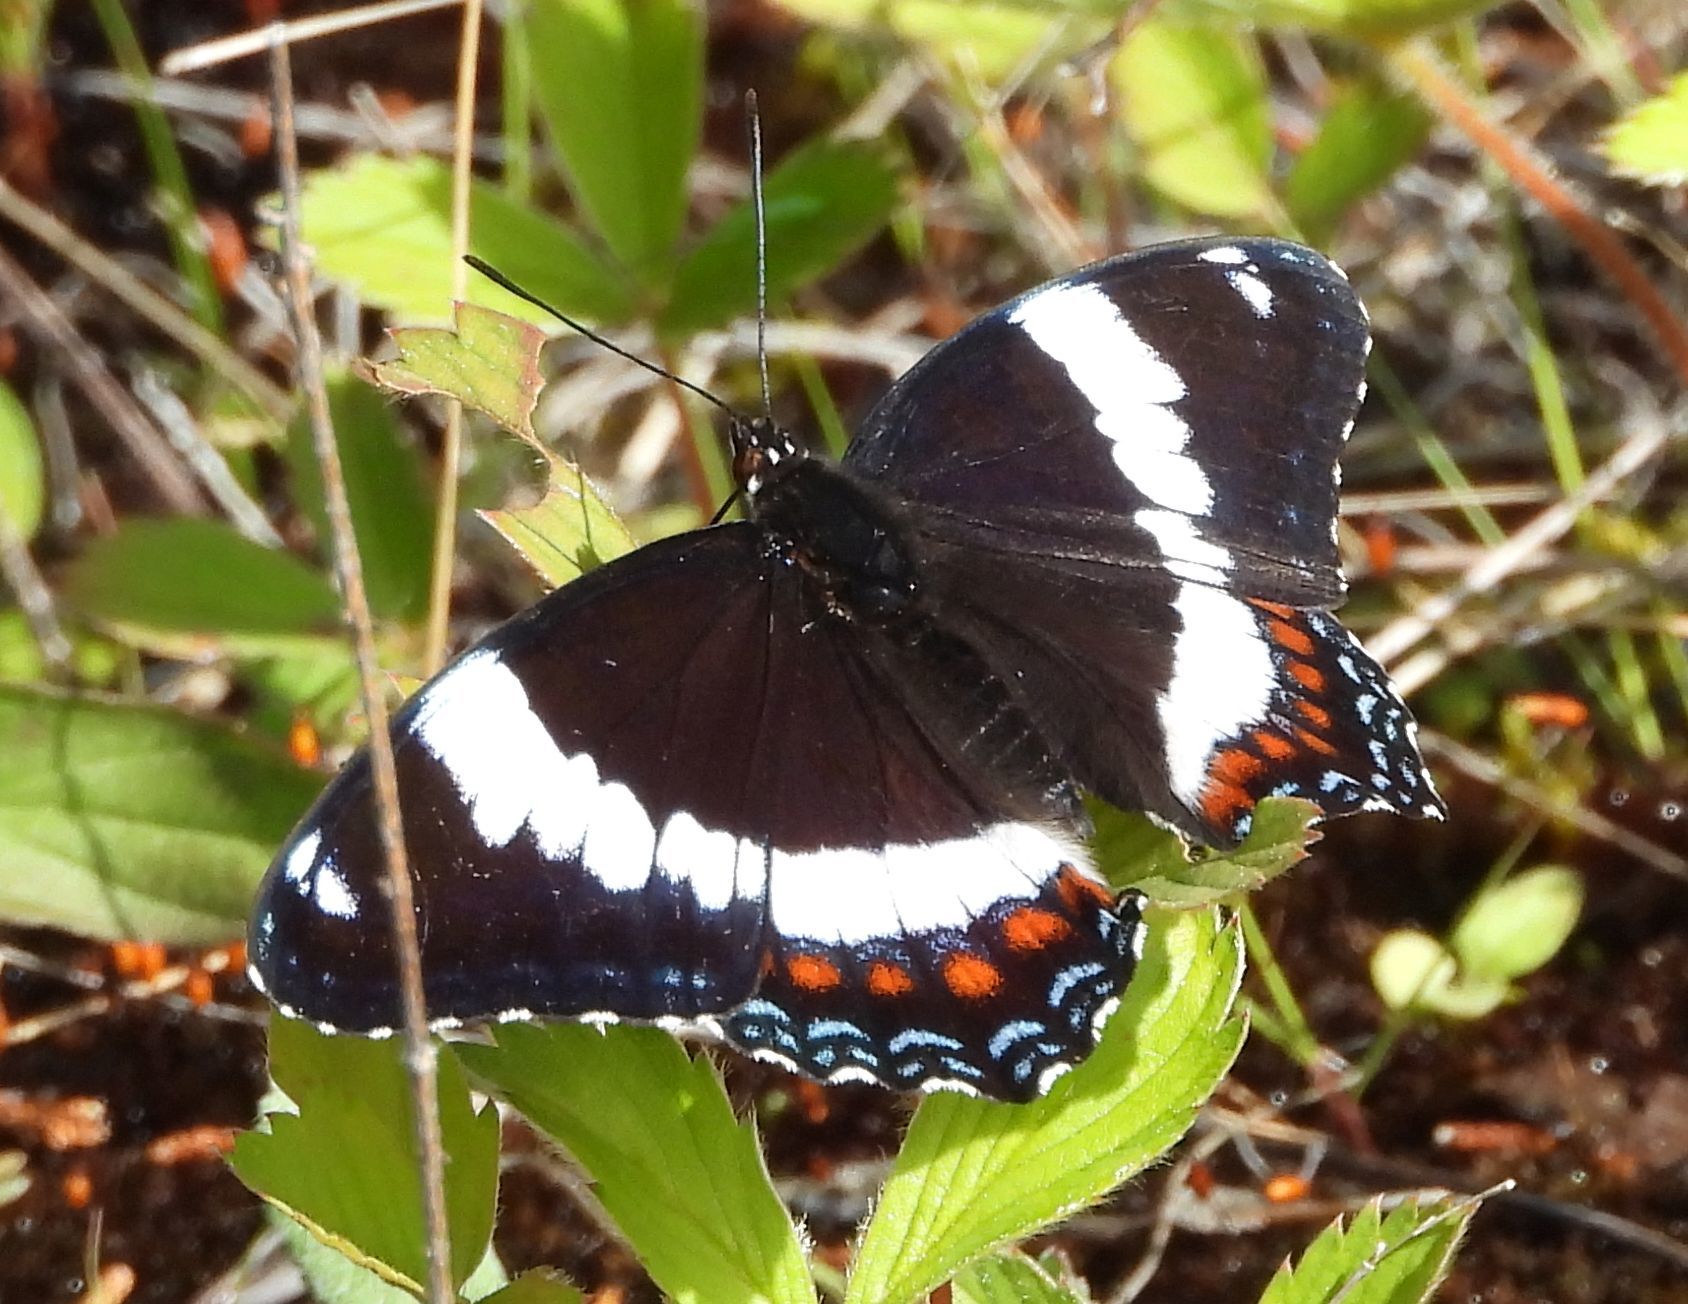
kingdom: Animalia
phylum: Arthropoda
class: Insecta
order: Lepidoptera
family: Nymphalidae
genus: Limenitis
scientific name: Limenitis arthemis
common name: Red-spotted admiral
